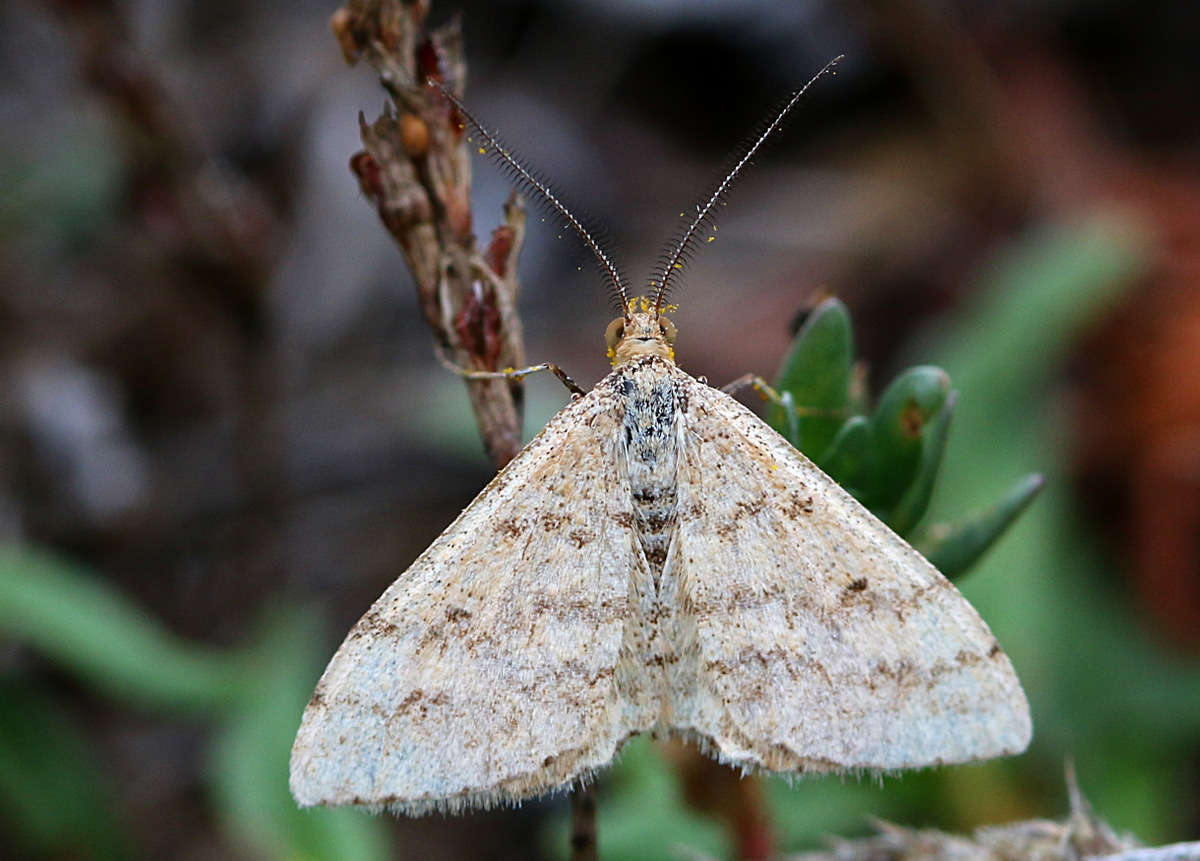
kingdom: Animalia
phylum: Arthropoda
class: Insecta
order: Lepidoptera
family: Geometridae
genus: Scopula
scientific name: Scopula rubraria
